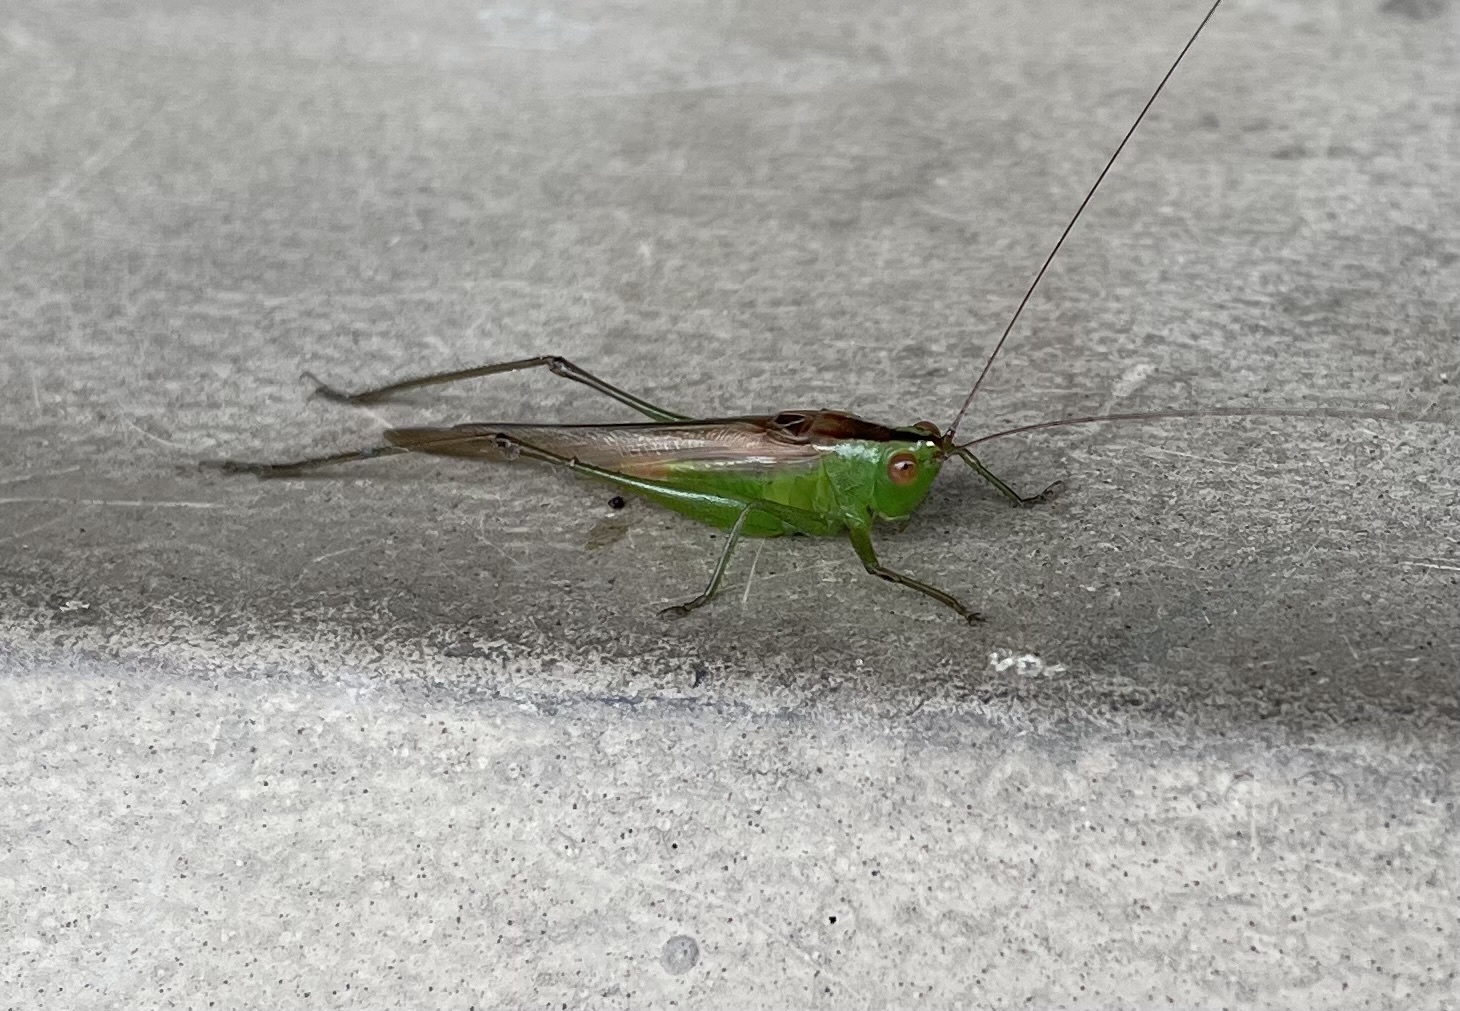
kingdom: Animalia
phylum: Arthropoda
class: Insecta
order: Orthoptera
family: Tettigoniidae
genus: Conocephalus
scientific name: Conocephalus cinereus
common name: Caribbean meadow katydid
